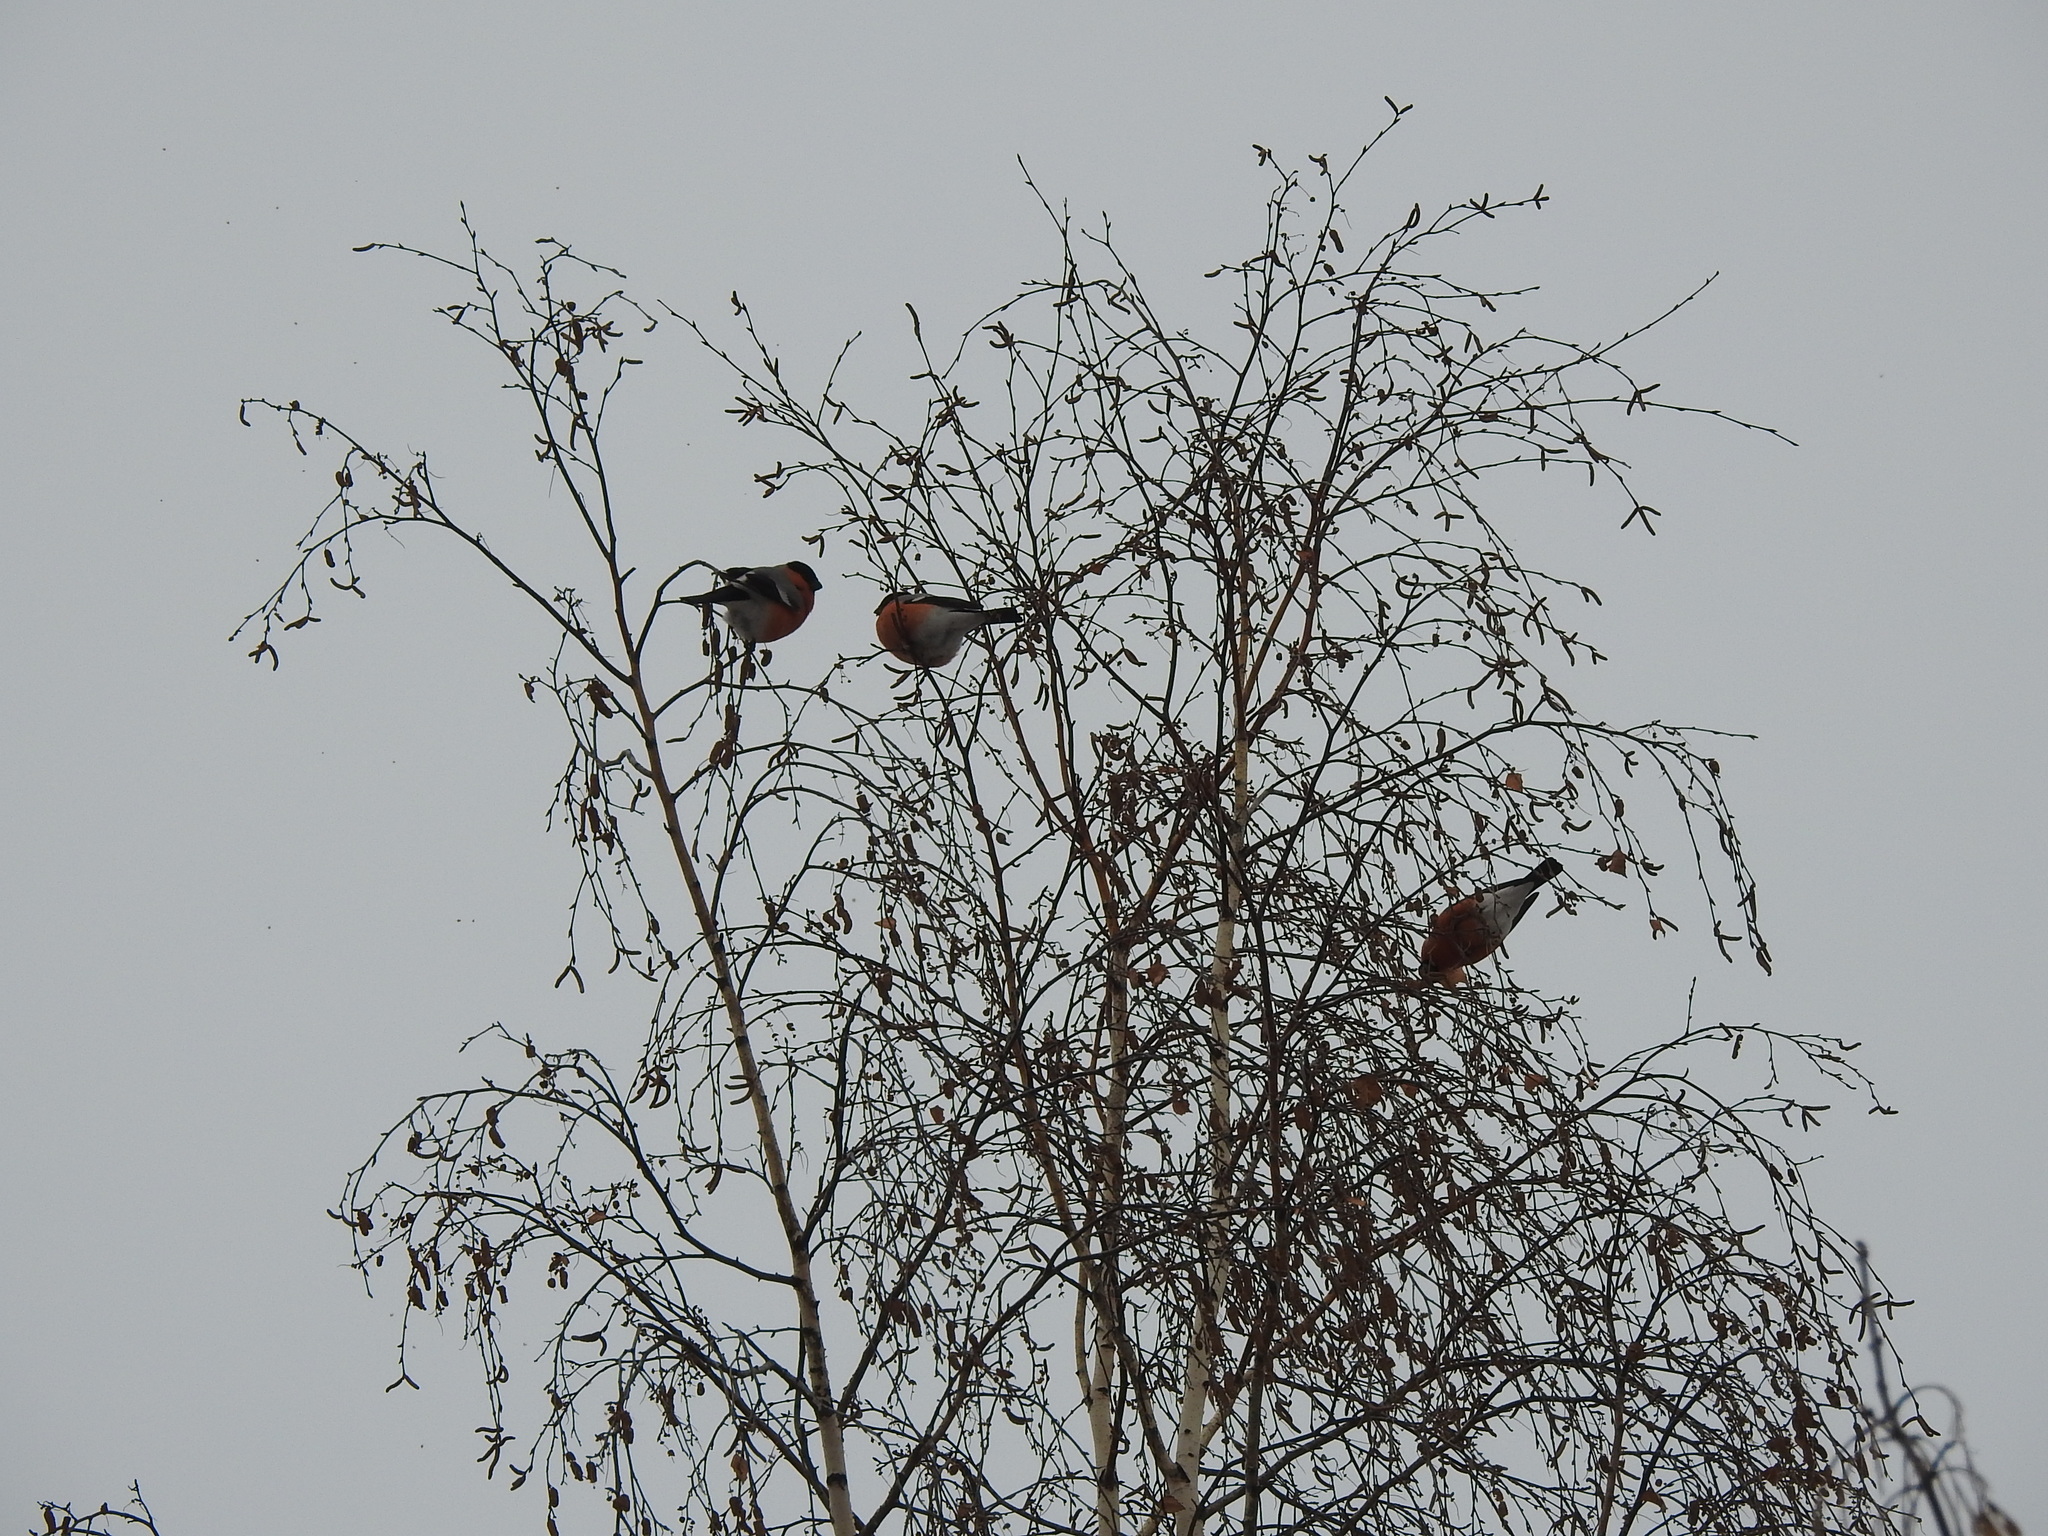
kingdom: Animalia
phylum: Chordata
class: Aves
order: Passeriformes
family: Fringillidae
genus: Pyrrhula
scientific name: Pyrrhula pyrrhula
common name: Eurasian bullfinch
